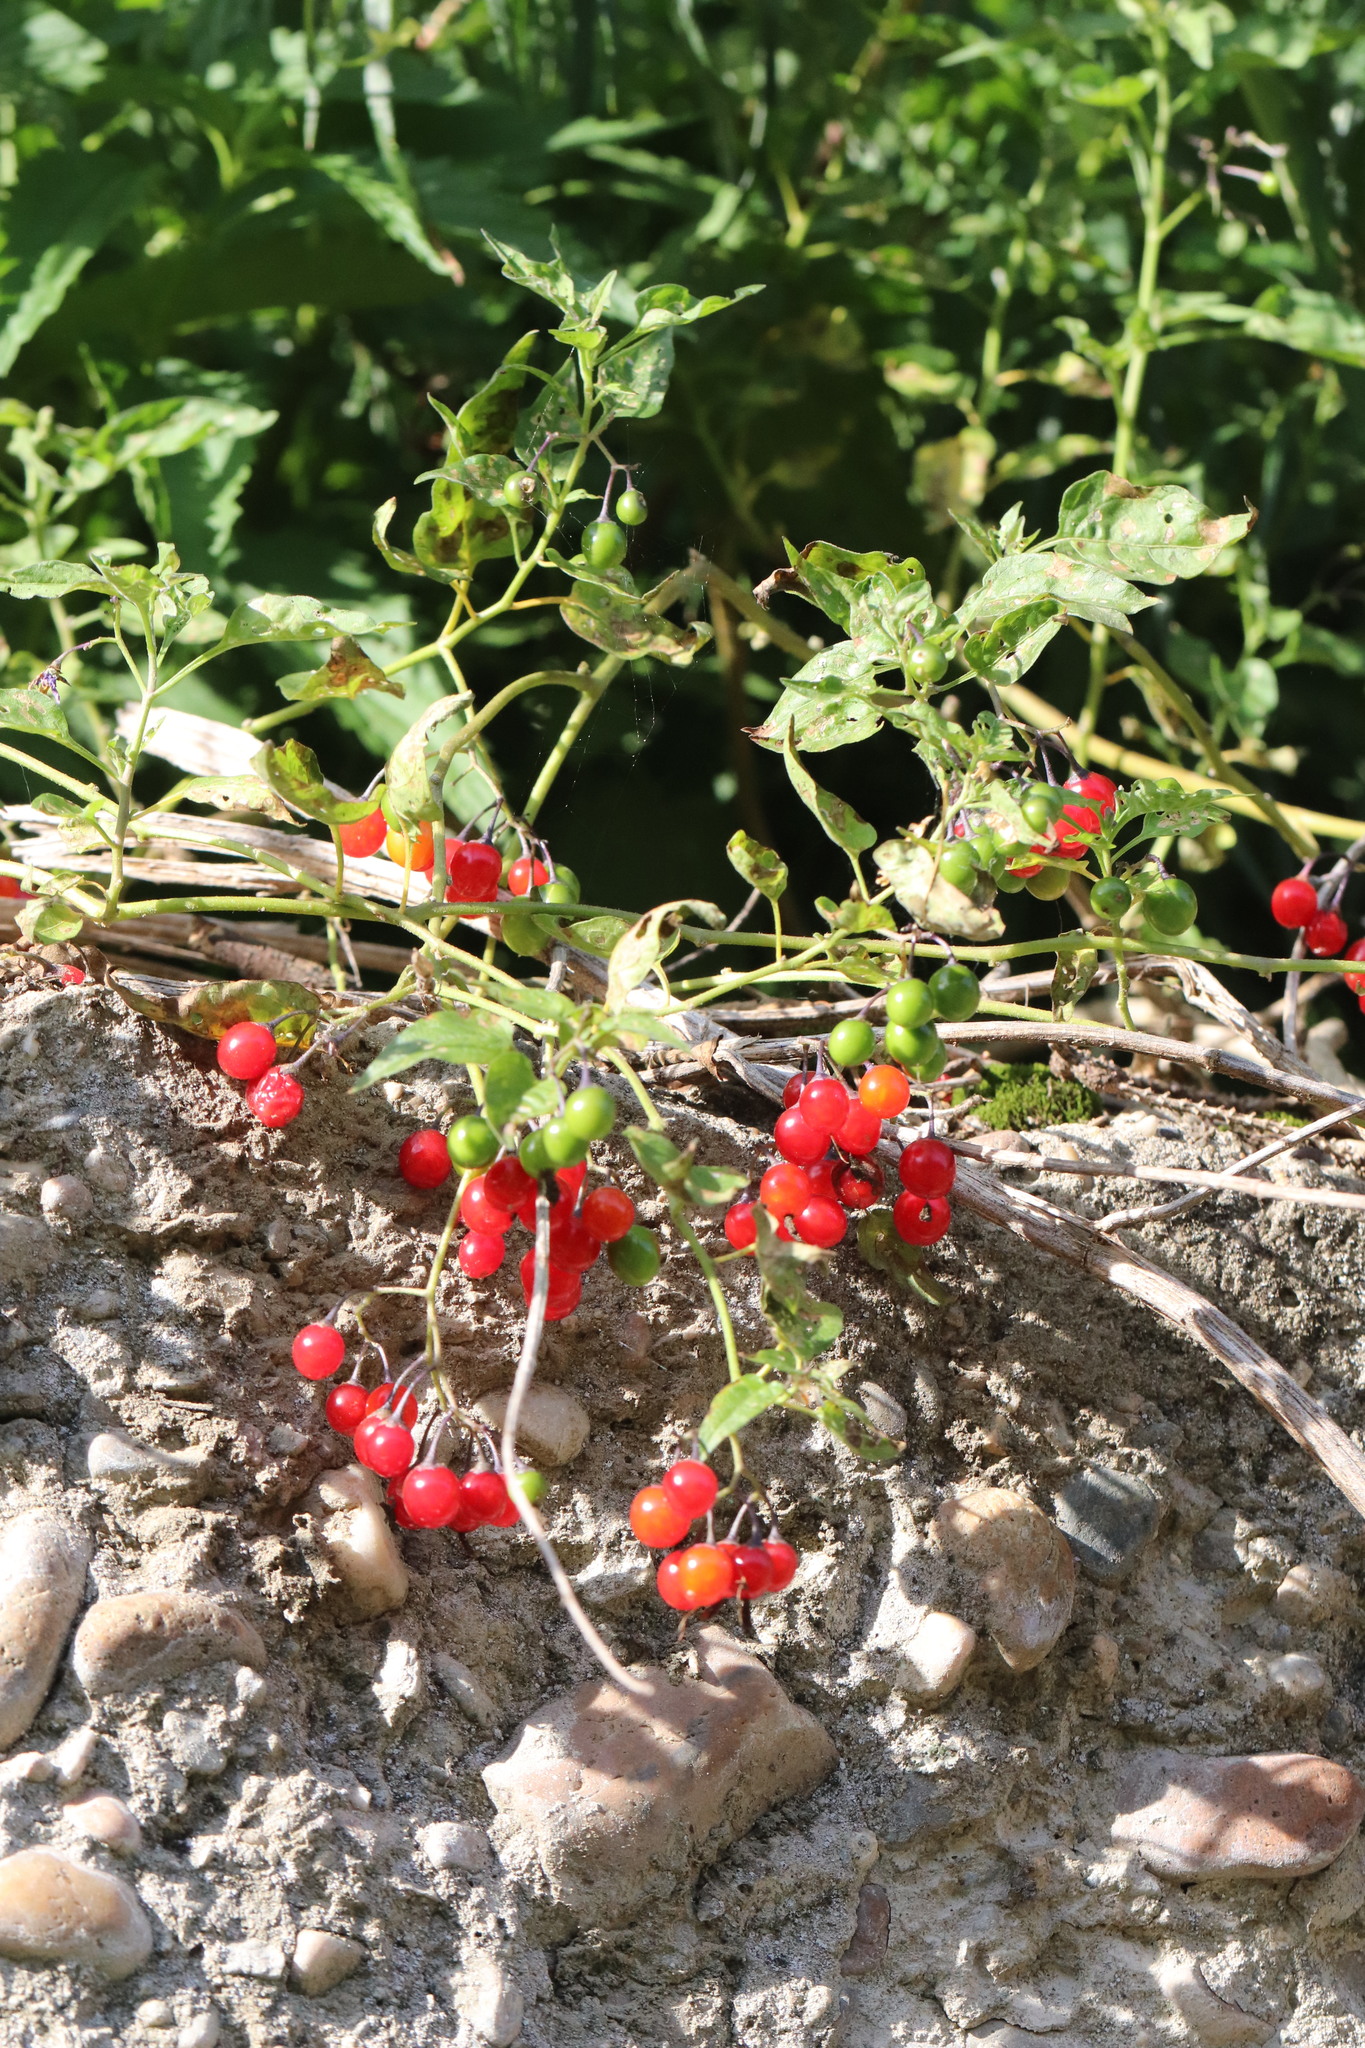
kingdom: Plantae
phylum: Tracheophyta
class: Magnoliopsida
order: Solanales
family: Solanaceae
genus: Solanum
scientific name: Solanum dulcamara
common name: Climbing nightshade
